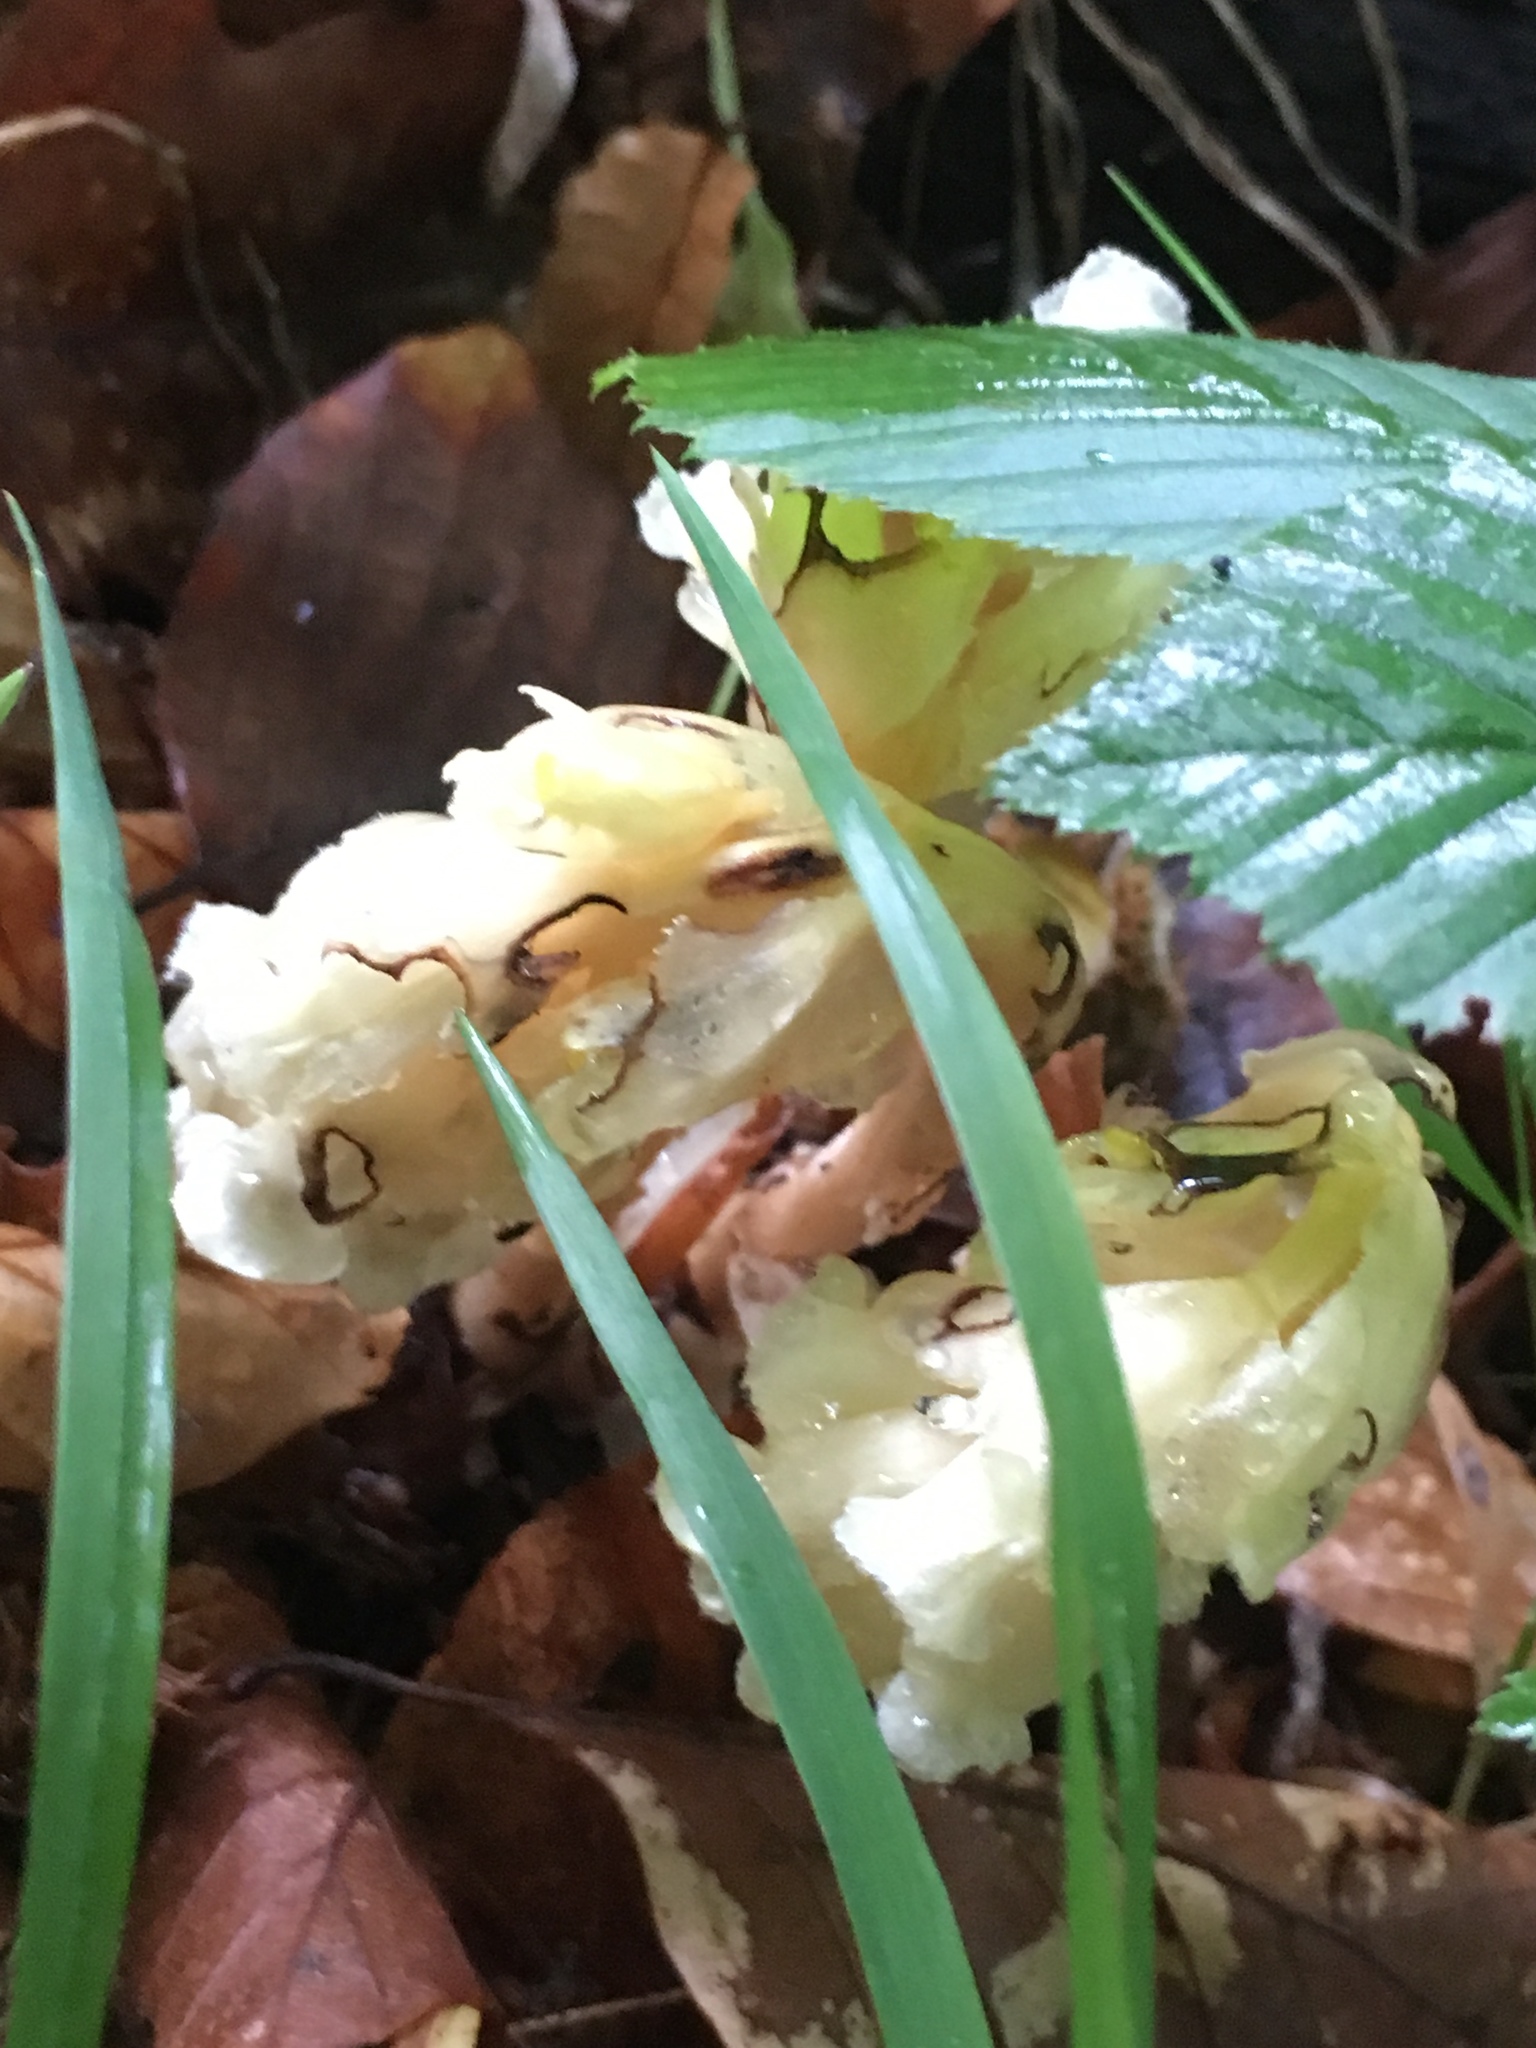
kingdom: Plantae
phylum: Tracheophyta
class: Magnoliopsida
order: Ericales
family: Ericaceae
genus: Hypopitys
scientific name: Hypopitys monotropa
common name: Yellow bird's-nest
